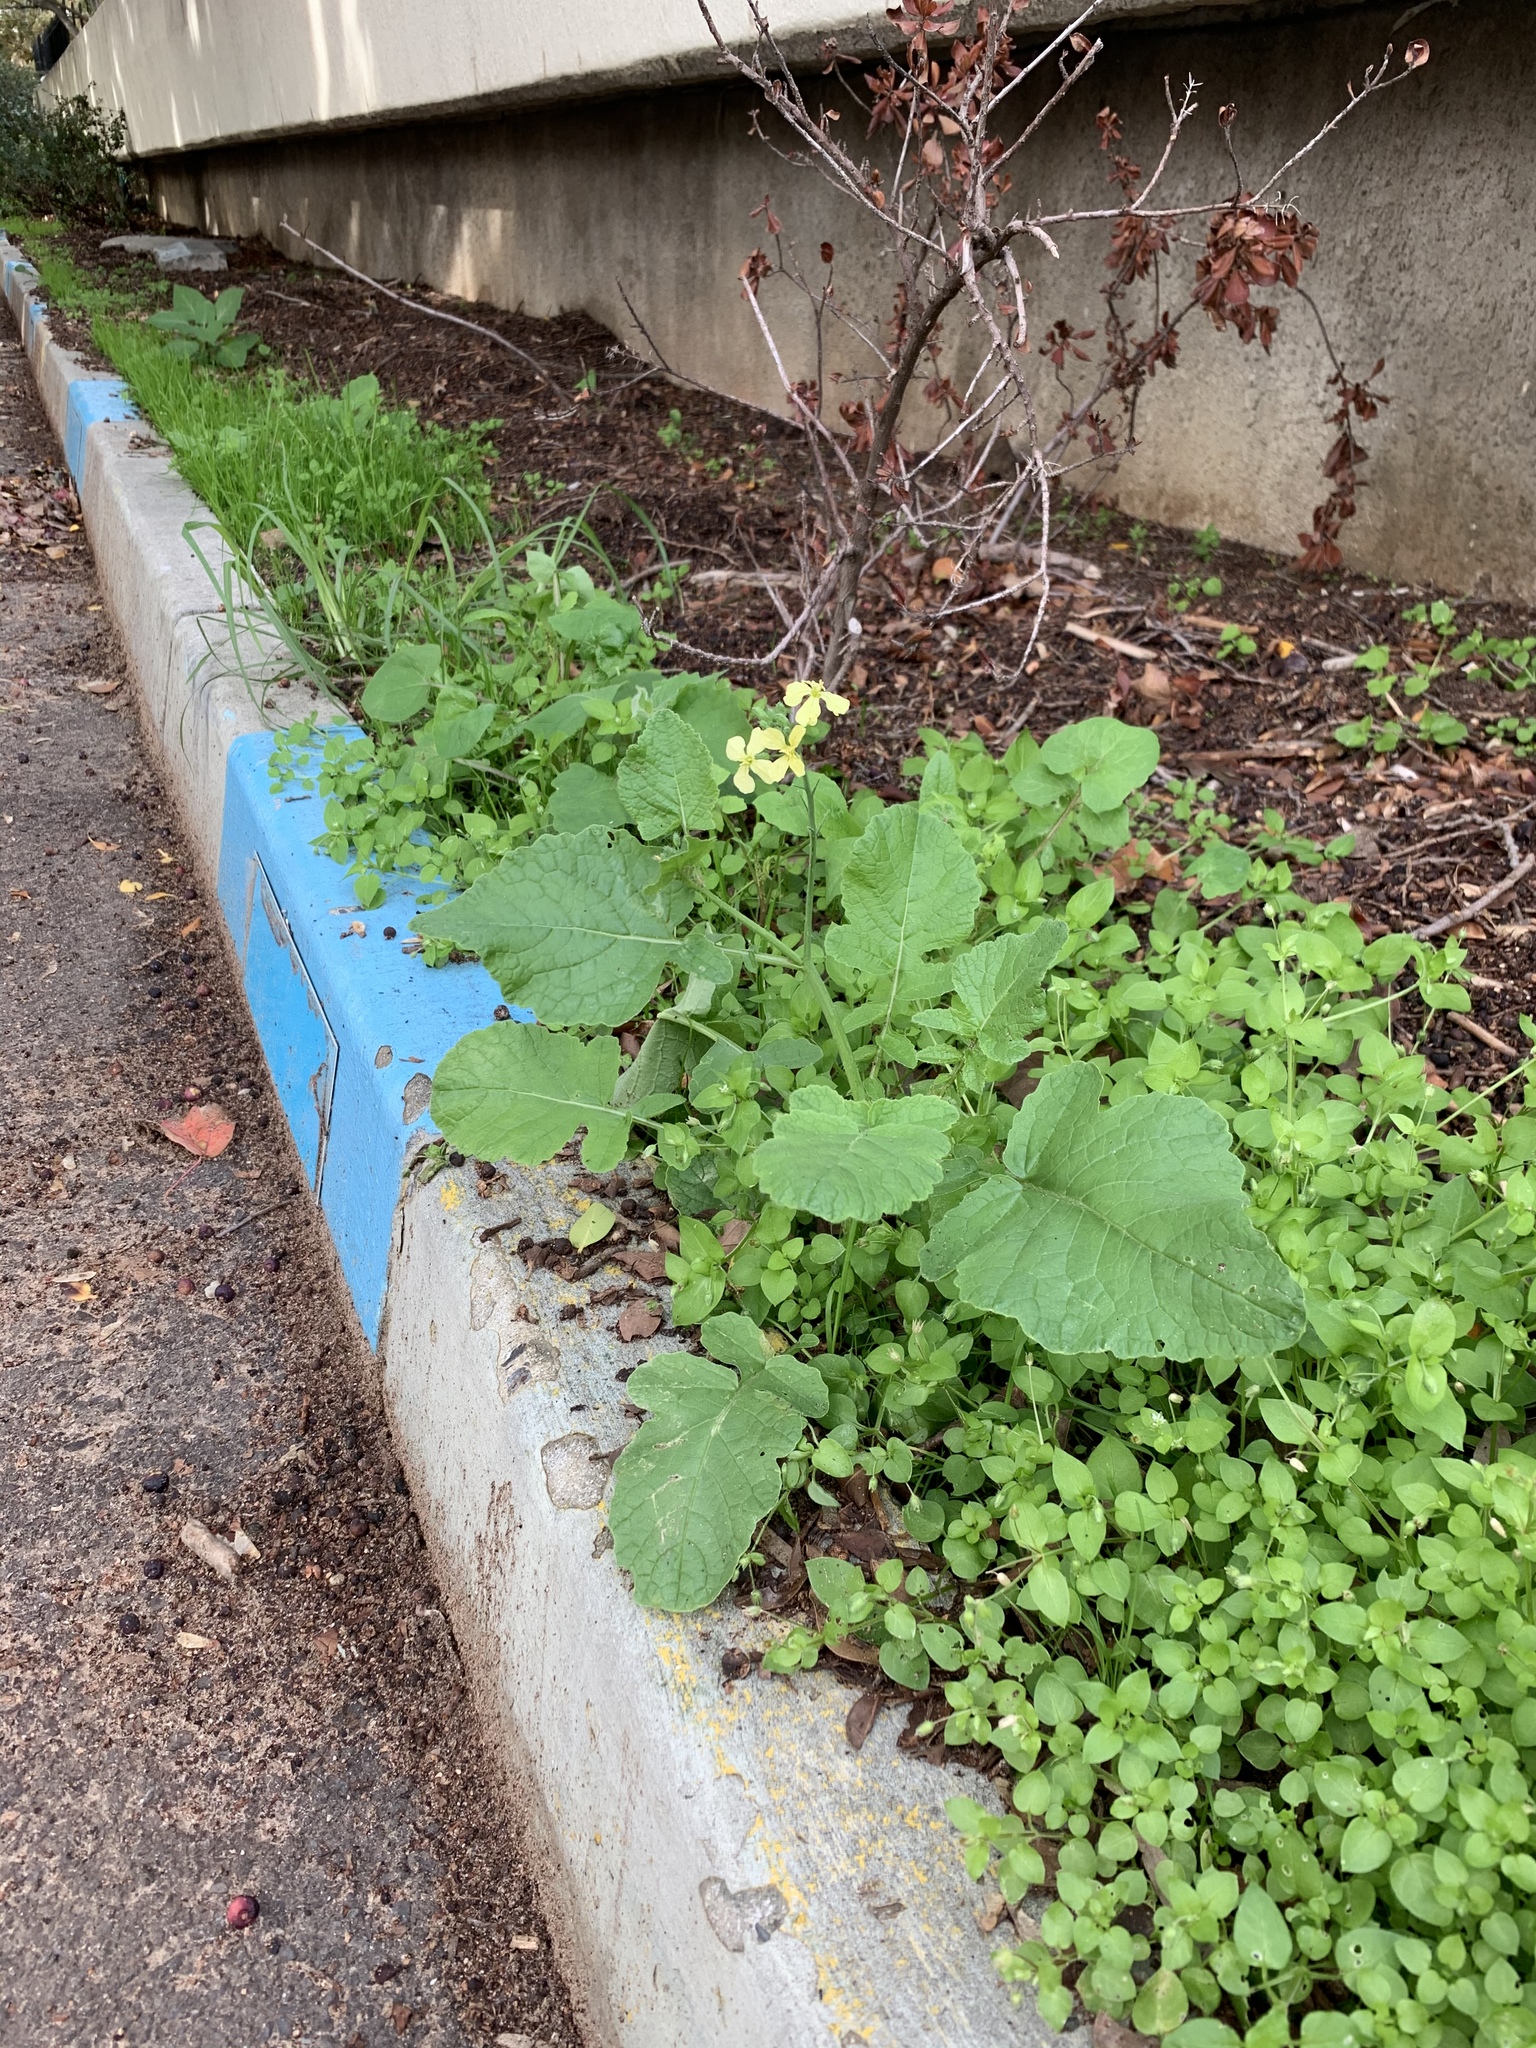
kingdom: Plantae
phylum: Tracheophyta
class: Magnoliopsida
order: Brassicales
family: Brassicaceae
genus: Raphanus
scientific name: Raphanus raphanistrum
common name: Wild radish
